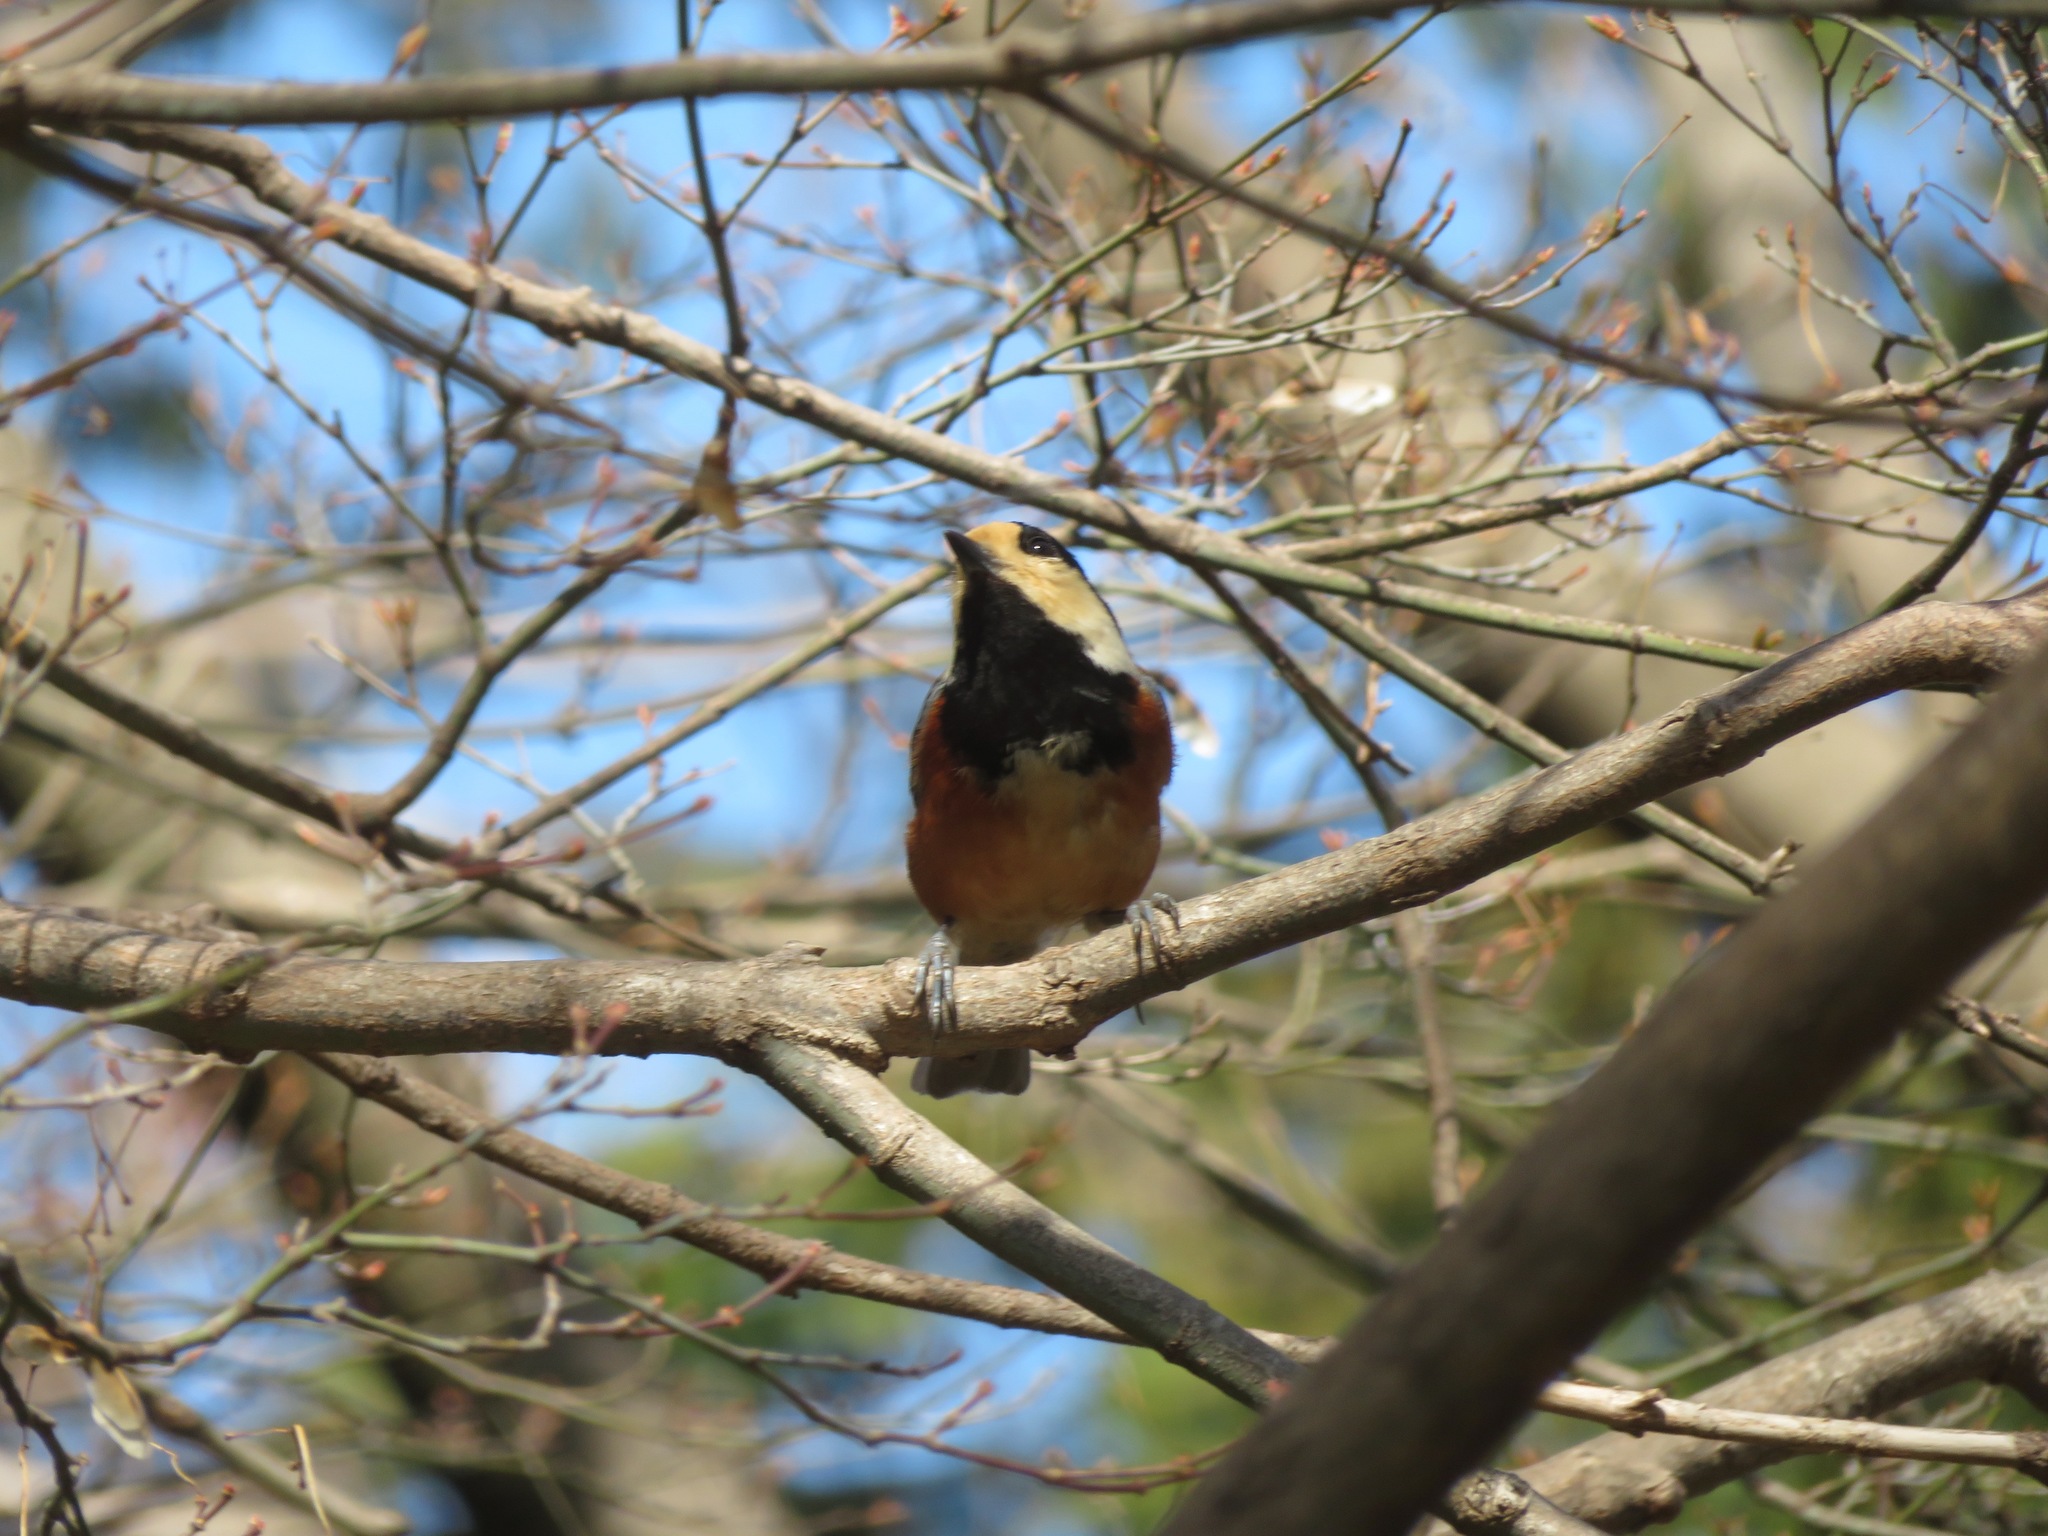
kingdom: Animalia
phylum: Chordata
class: Aves
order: Passeriformes
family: Paridae
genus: Poecile
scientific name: Poecile varius
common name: Varied tit
